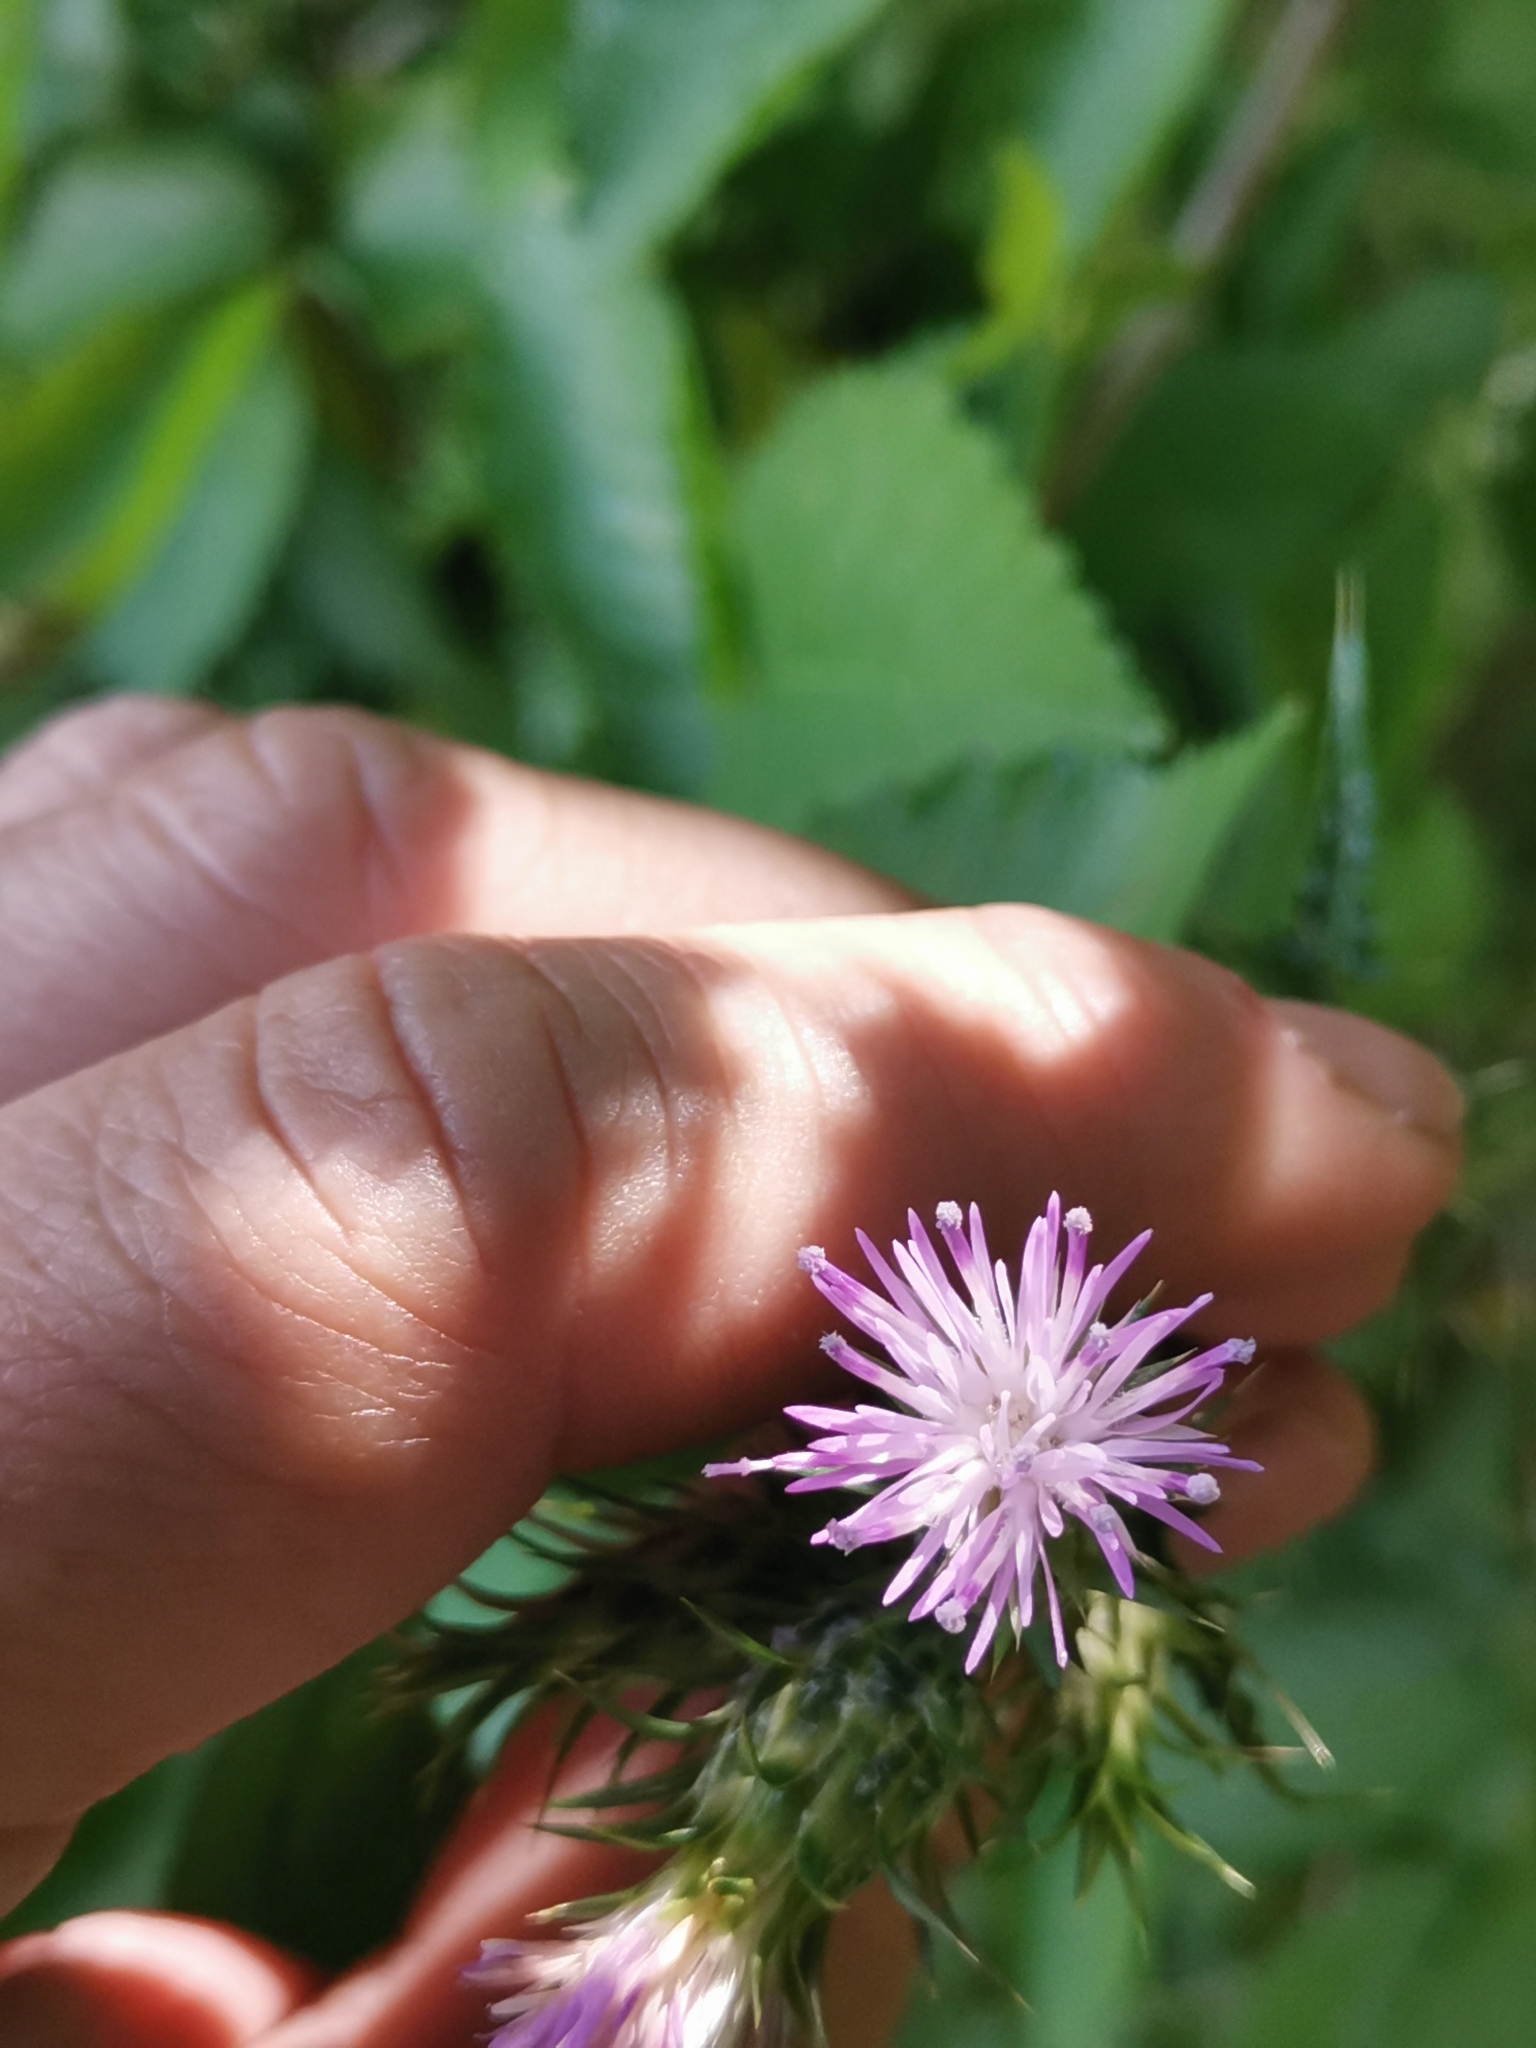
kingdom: Plantae
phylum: Tracheophyta
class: Magnoliopsida
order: Asterales
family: Asteraceae
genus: Carduus
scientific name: Carduus pycnocephalus
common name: Plymouth thistle
